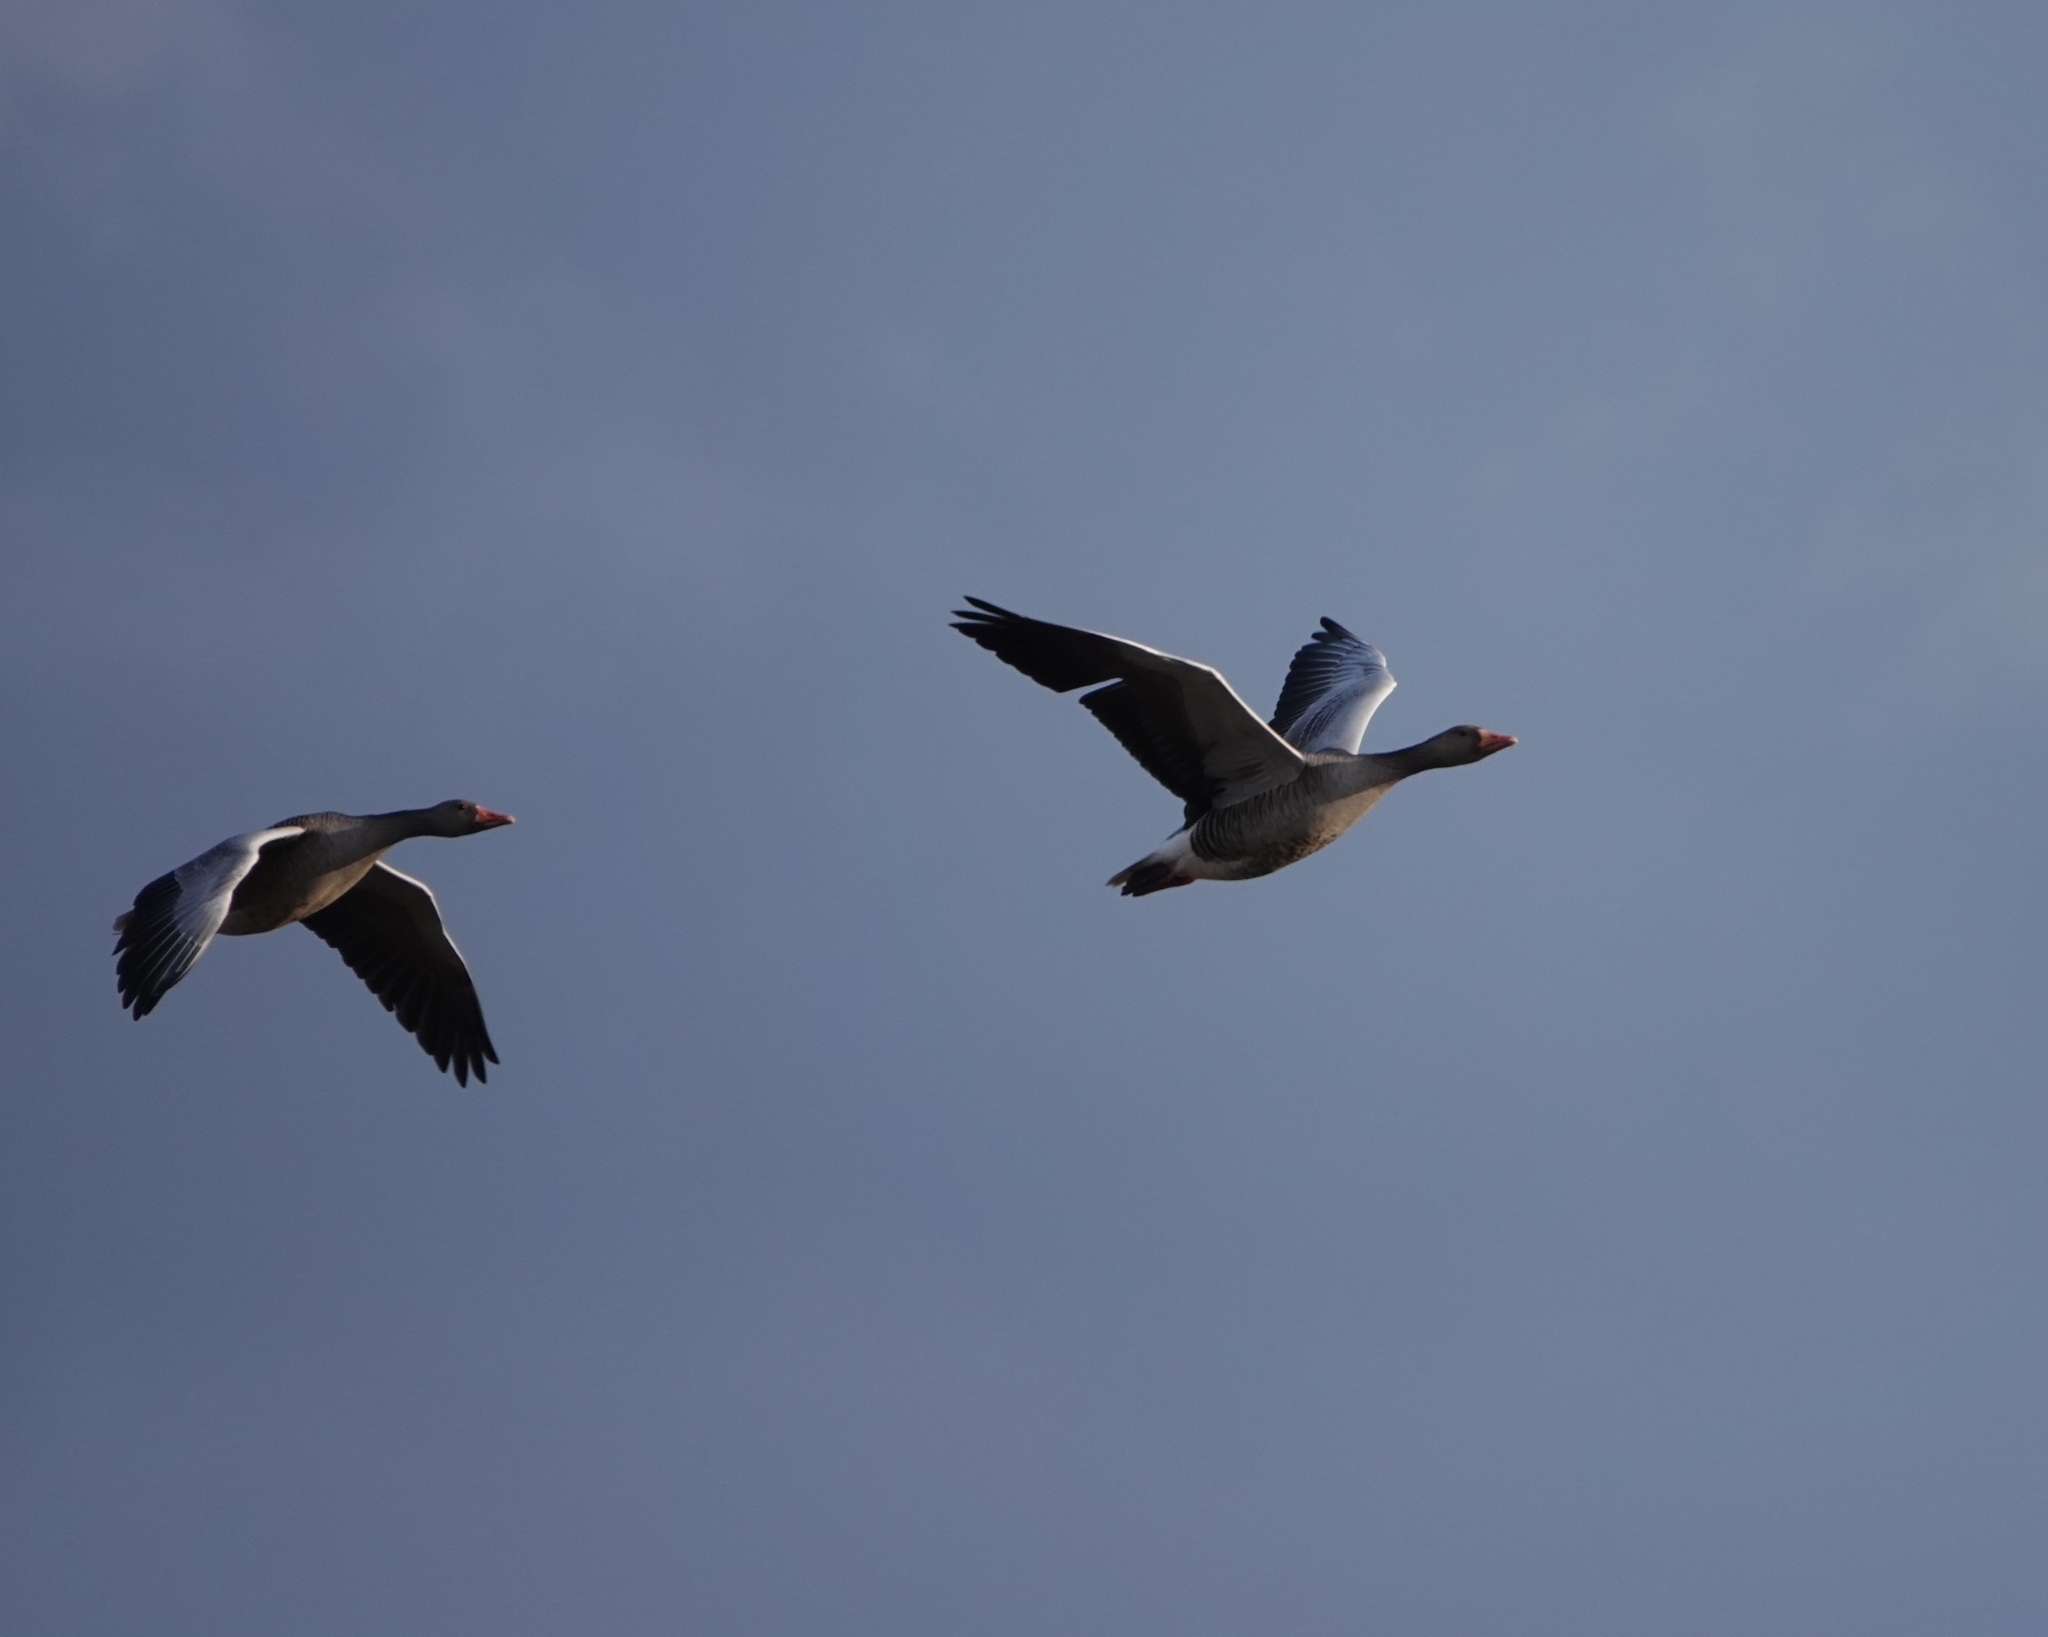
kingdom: Animalia
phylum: Chordata
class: Aves
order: Anseriformes
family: Anatidae
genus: Anser
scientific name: Anser anser
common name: Greylag goose
